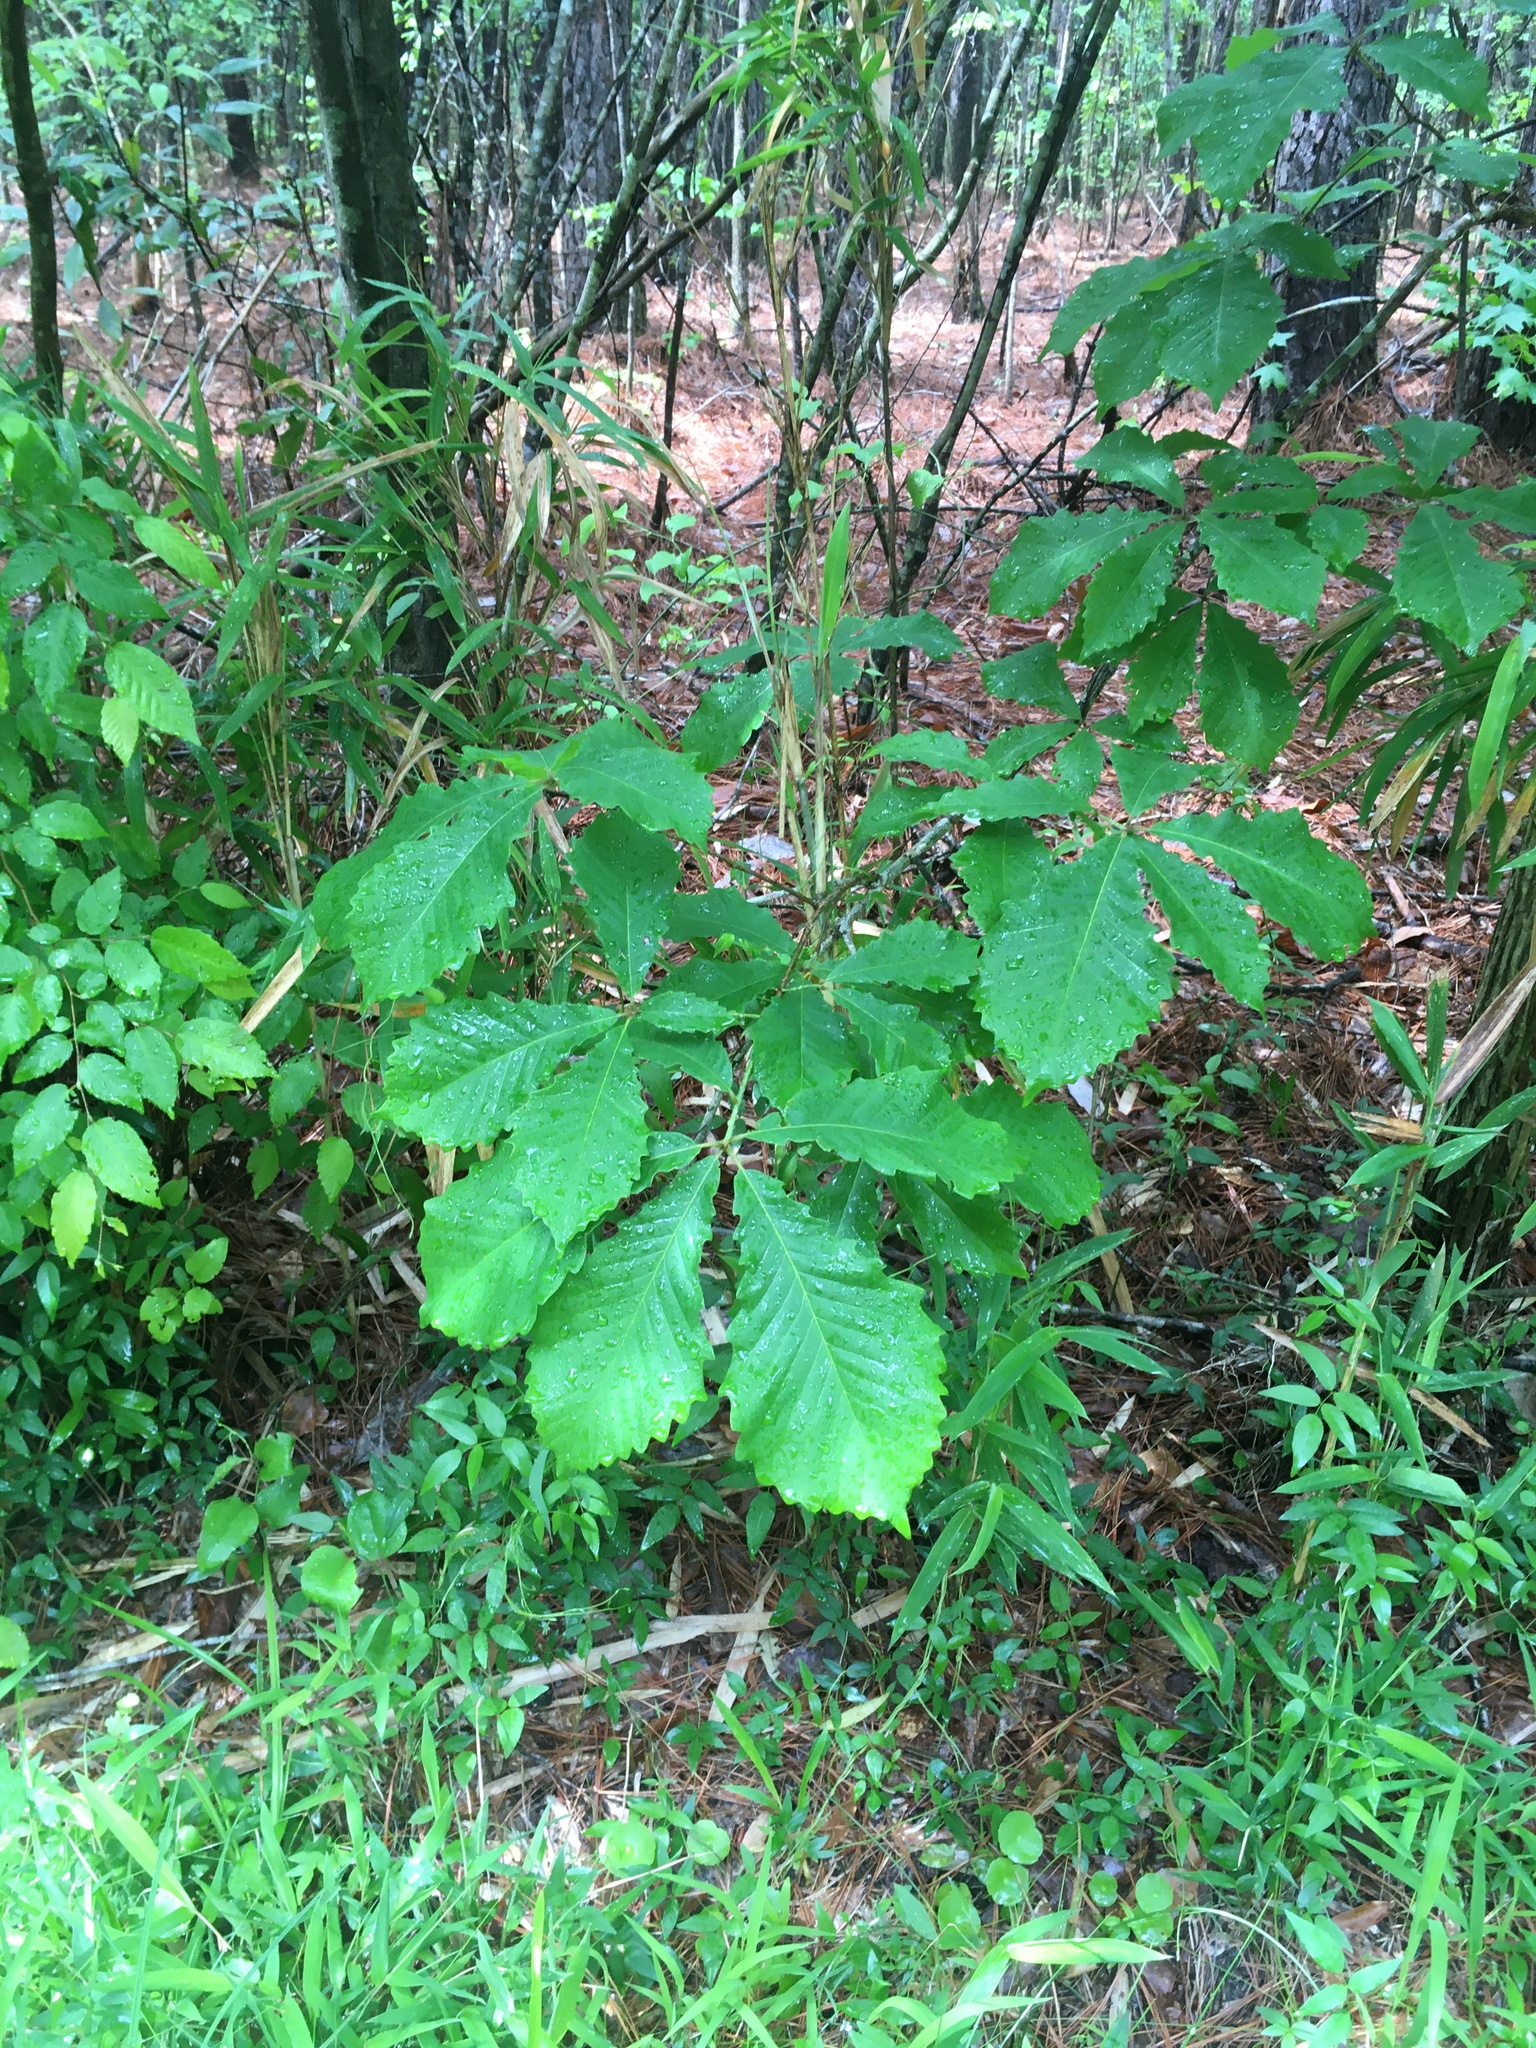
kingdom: Plantae
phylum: Tracheophyta
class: Magnoliopsida
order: Fagales
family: Fagaceae
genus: Quercus
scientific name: Quercus michauxii
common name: Swamp chestnut oak
